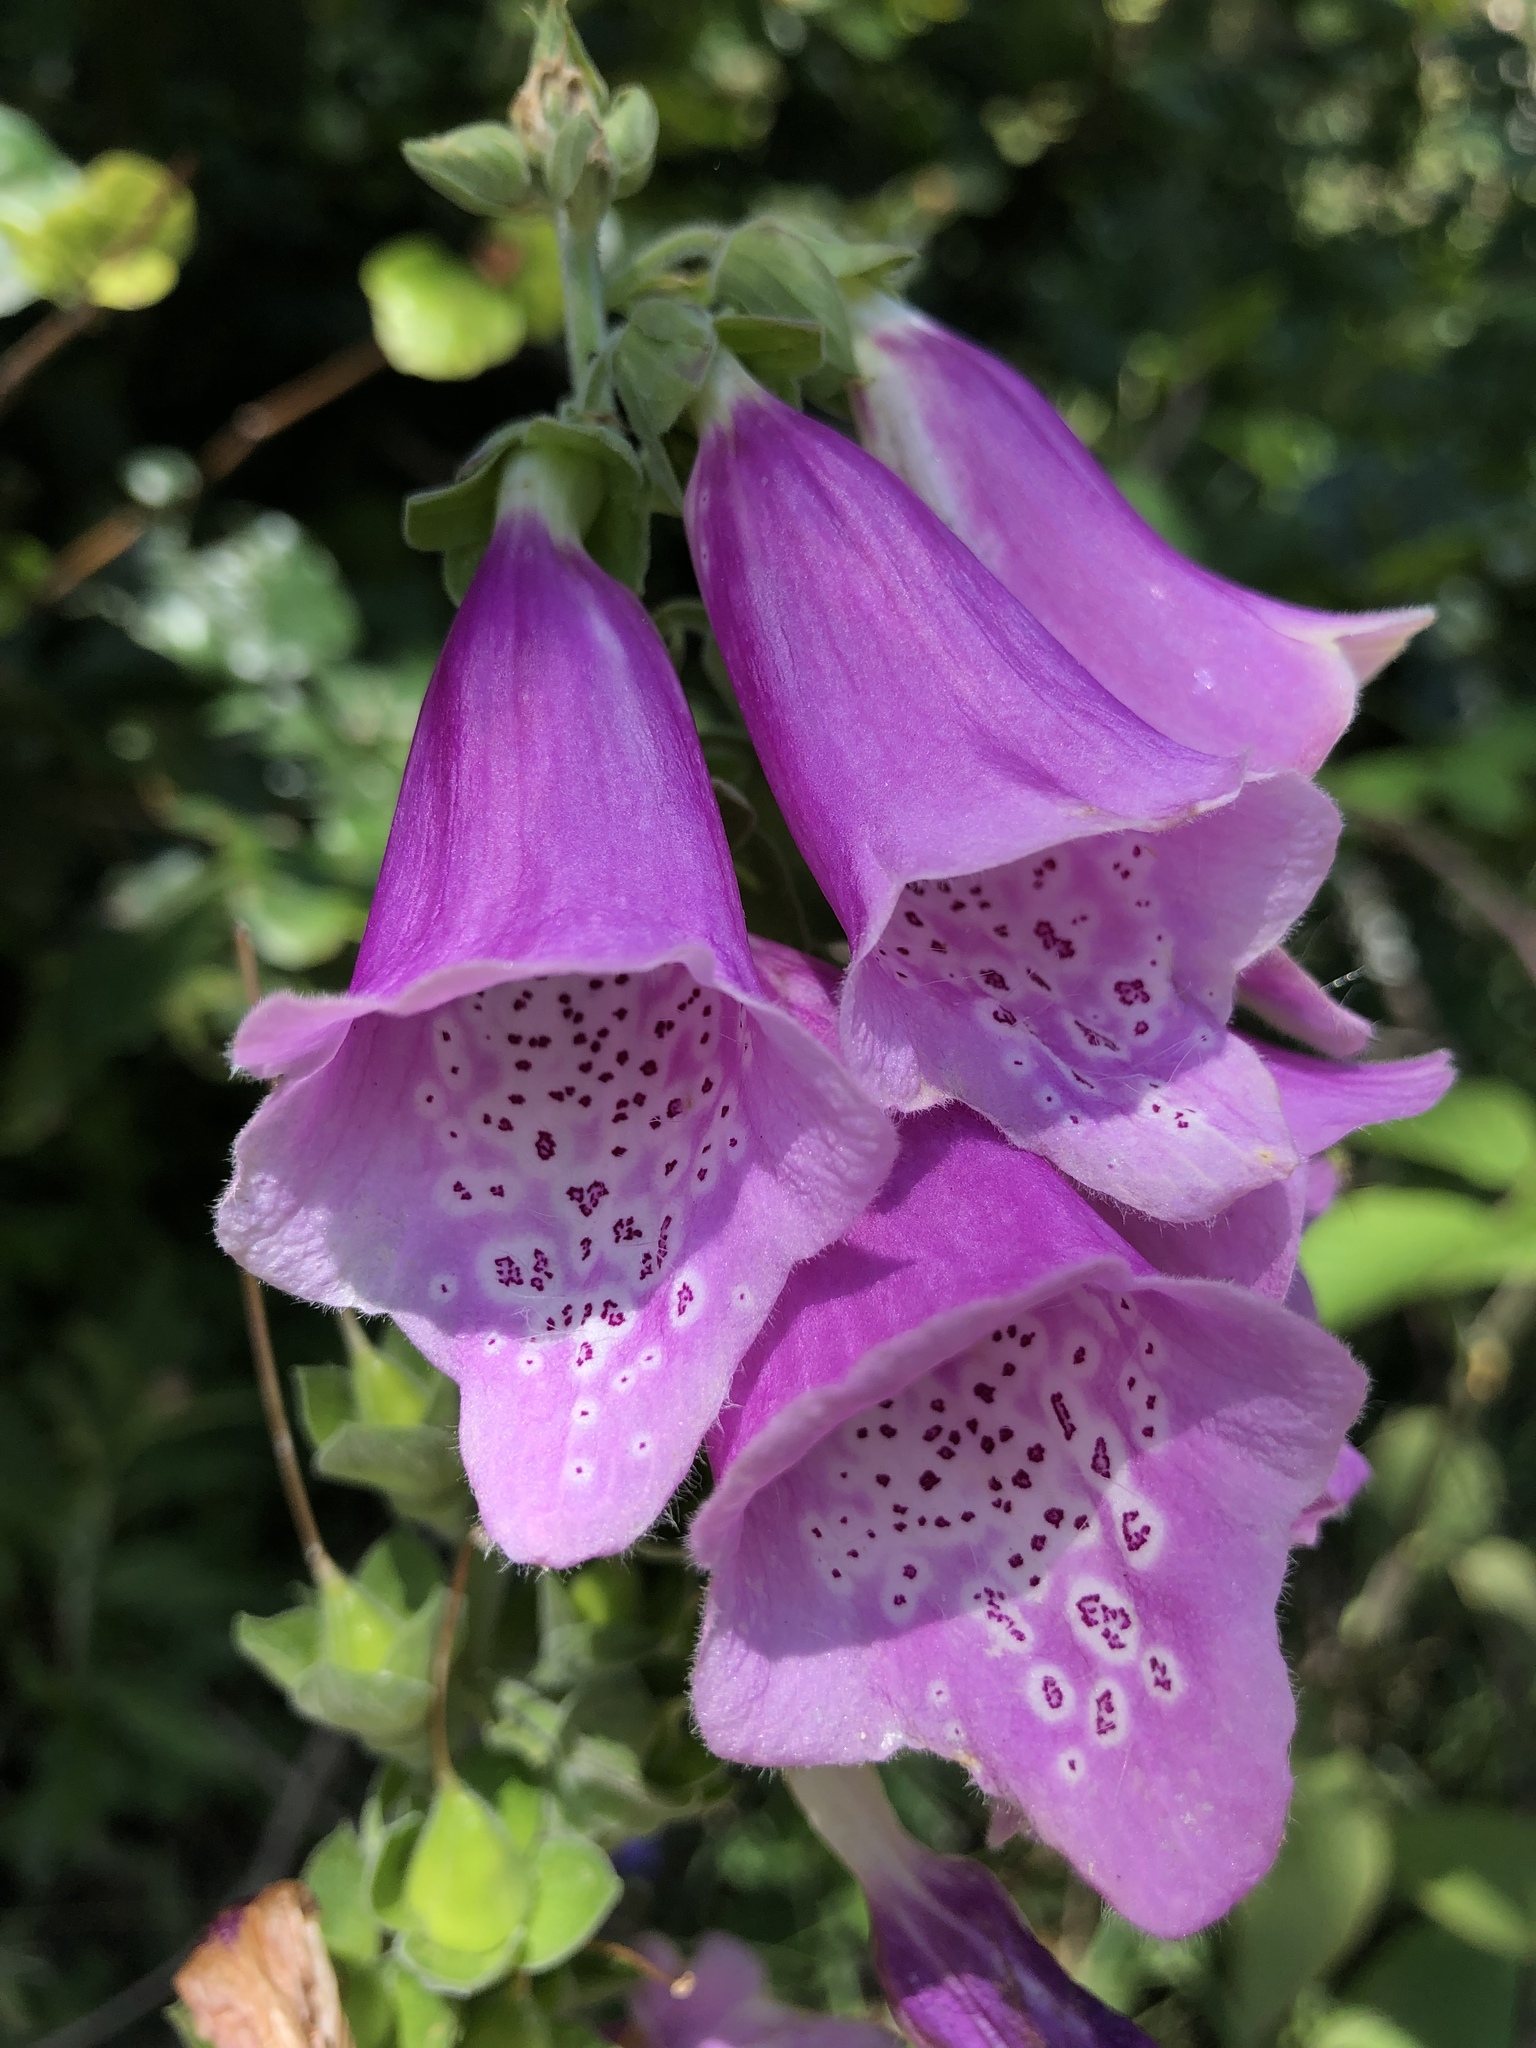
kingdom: Plantae
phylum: Tracheophyta
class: Magnoliopsida
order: Lamiales
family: Plantaginaceae
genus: Digitalis
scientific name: Digitalis purpurea
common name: Foxglove
